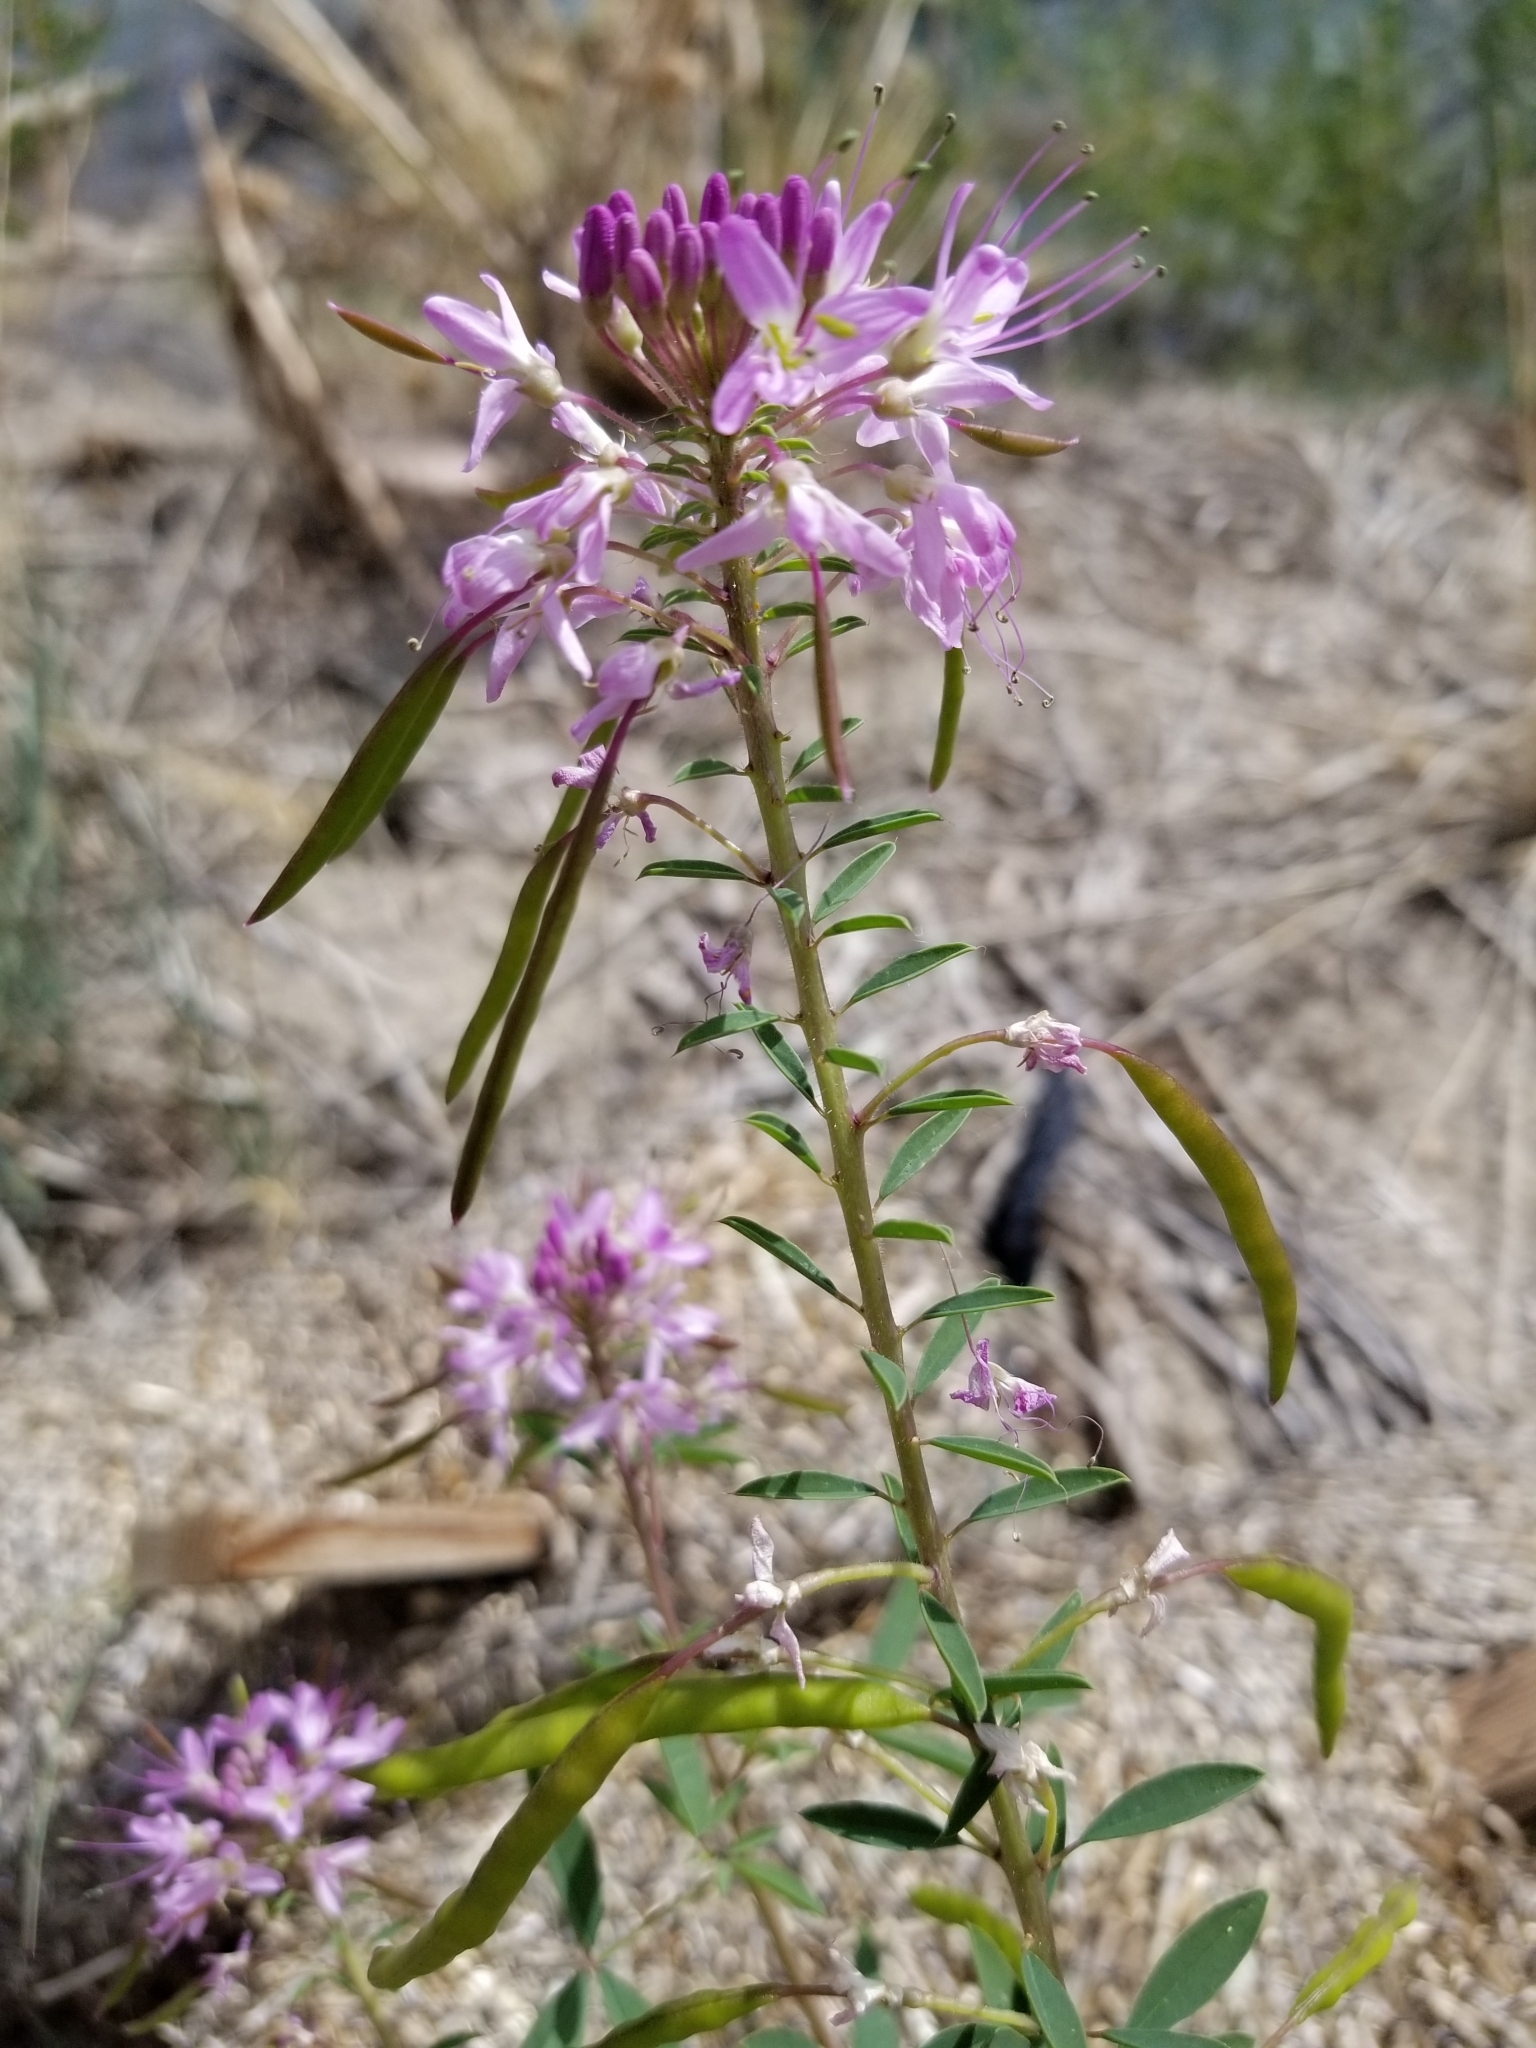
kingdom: Plantae
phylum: Tracheophyta
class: Magnoliopsida
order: Brassicales
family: Cleomaceae
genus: Cleomella
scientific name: Cleomella serrulata
